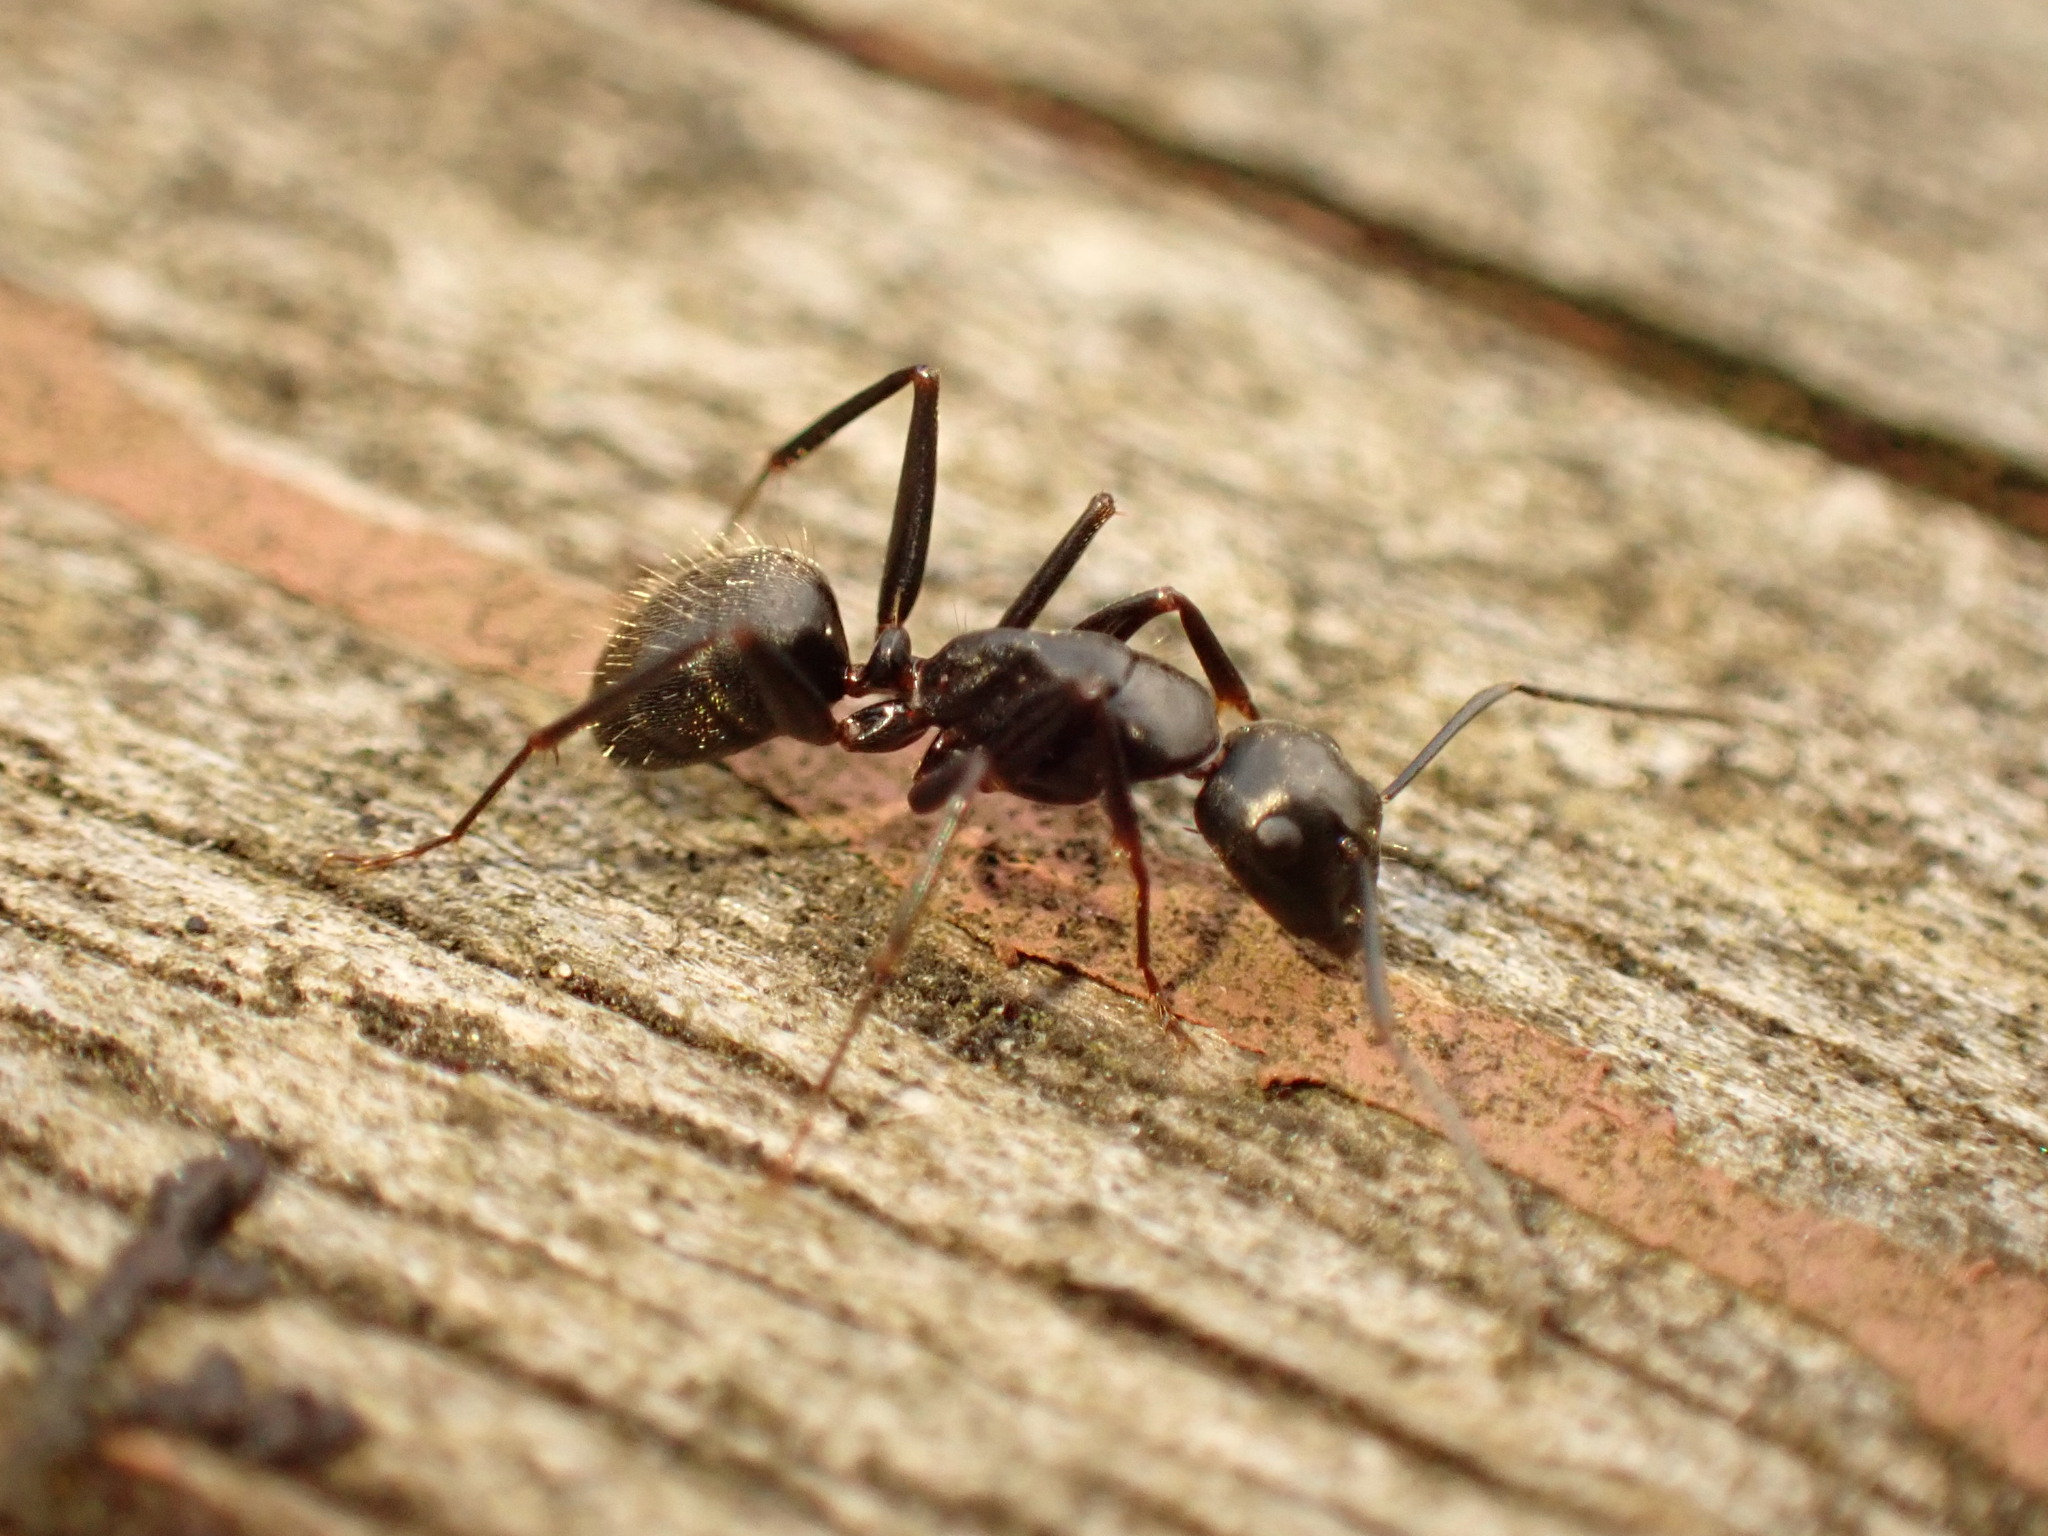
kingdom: Animalia
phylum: Arthropoda
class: Insecta
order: Hymenoptera
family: Formicidae
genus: Camponotus
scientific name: Camponotus pennsylvanicus
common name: Black carpenter ant
